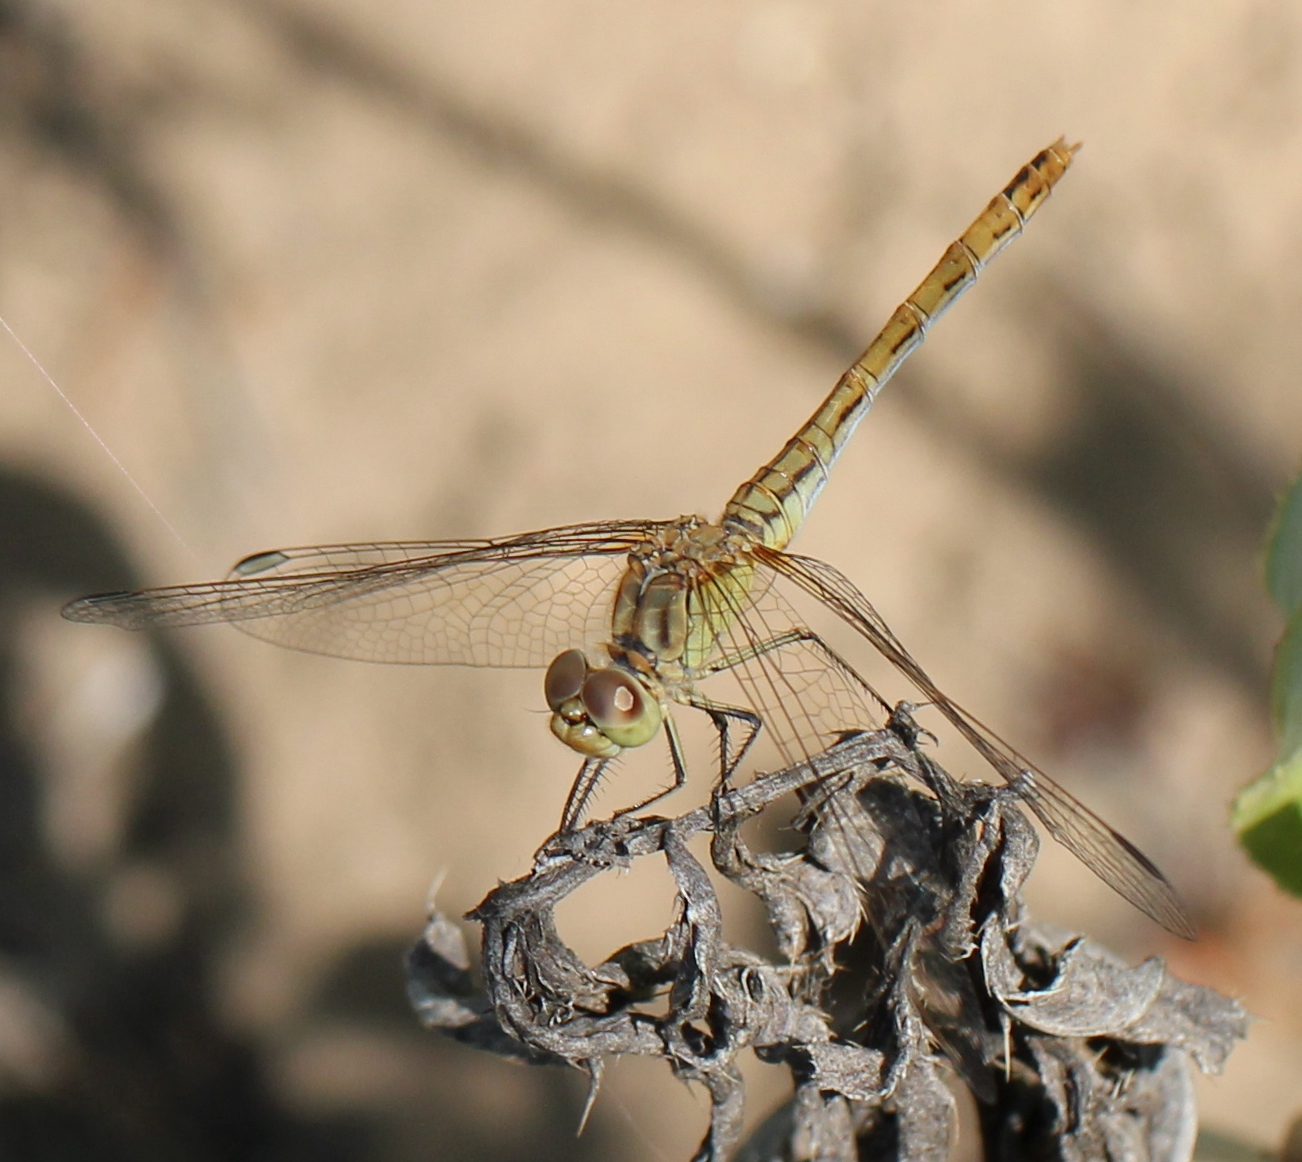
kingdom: Animalia
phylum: Arthropoda
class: Insecta
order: Odonata
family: Libellulidae
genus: Sympetrum
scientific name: Sympetrum meridionale
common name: Southern darter
